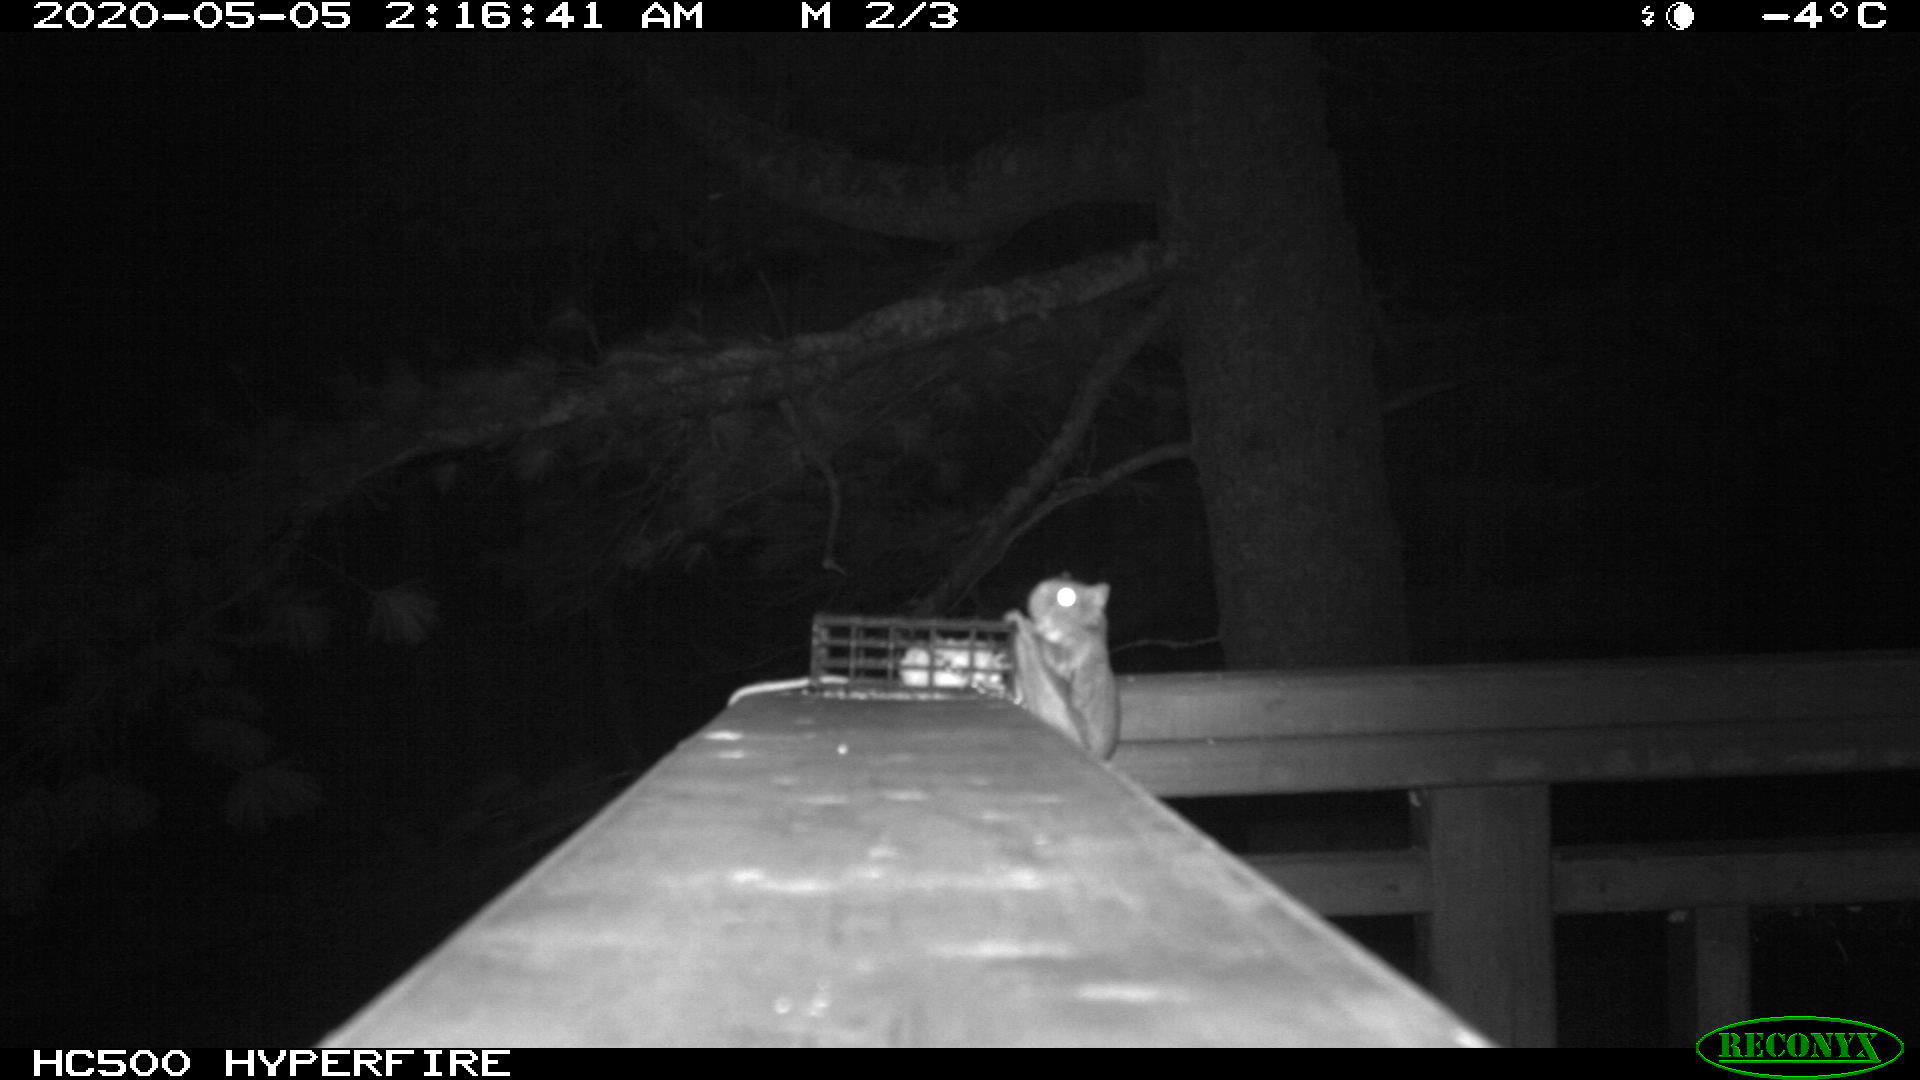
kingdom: Animalia
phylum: Chordata
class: Mammalia
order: Rodentia
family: Sciuridae
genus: Glaucomys
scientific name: Glaucomys sabrinus
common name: Northern flying squirrel
